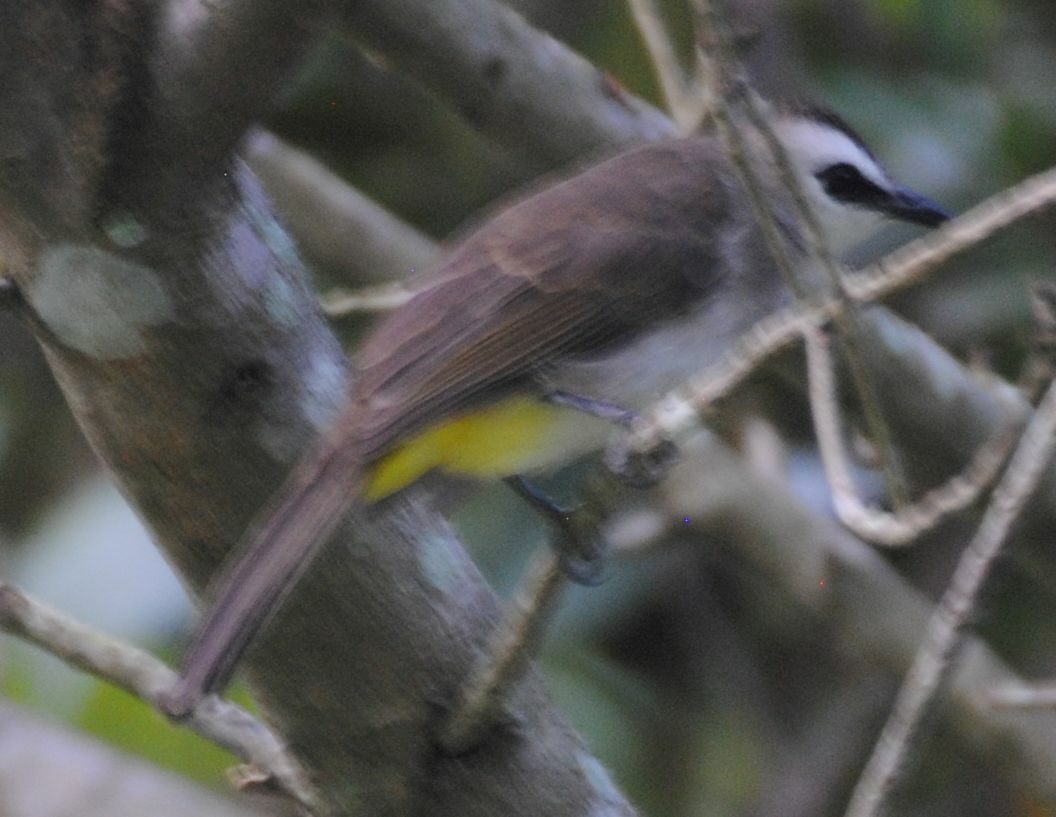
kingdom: Animalia
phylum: Chordata
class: Aves
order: Passeriformes
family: Pycnonotidae
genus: Pycnonotus
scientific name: Pycnonotus goiavier
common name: Yellow-vented bulbul
